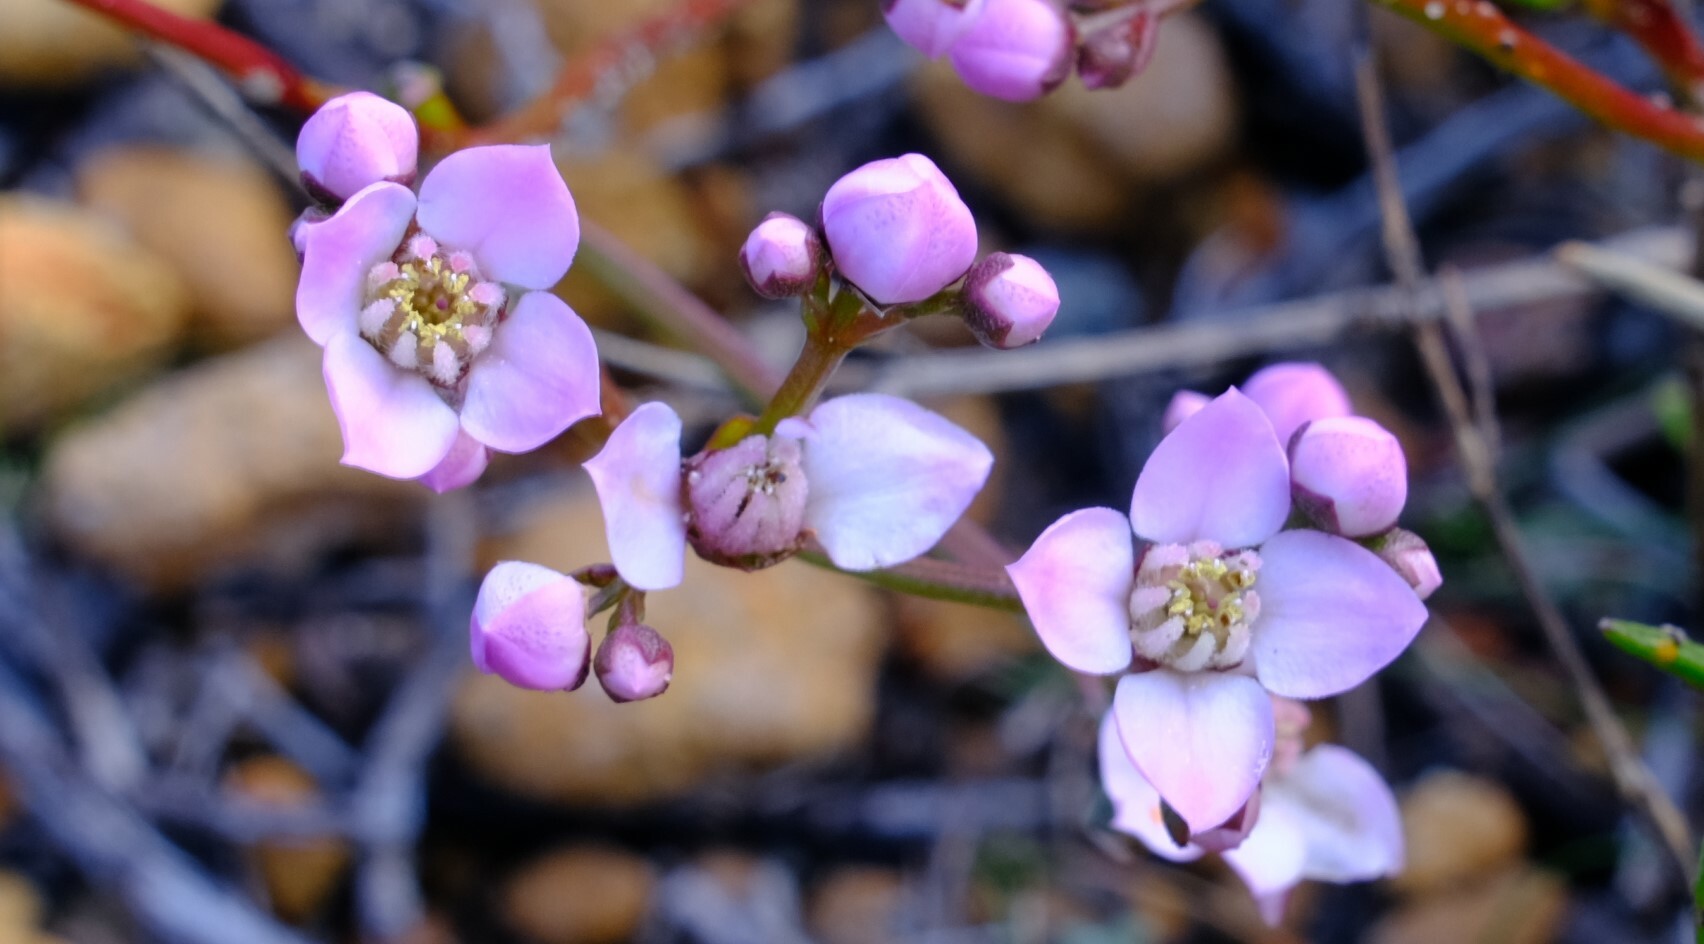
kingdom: Plantae
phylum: Tracheophyta
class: Magnoliopsida
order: Sapindales
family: Rutaceae
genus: Boronia
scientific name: Boronia cymosa
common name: Granite boronia
